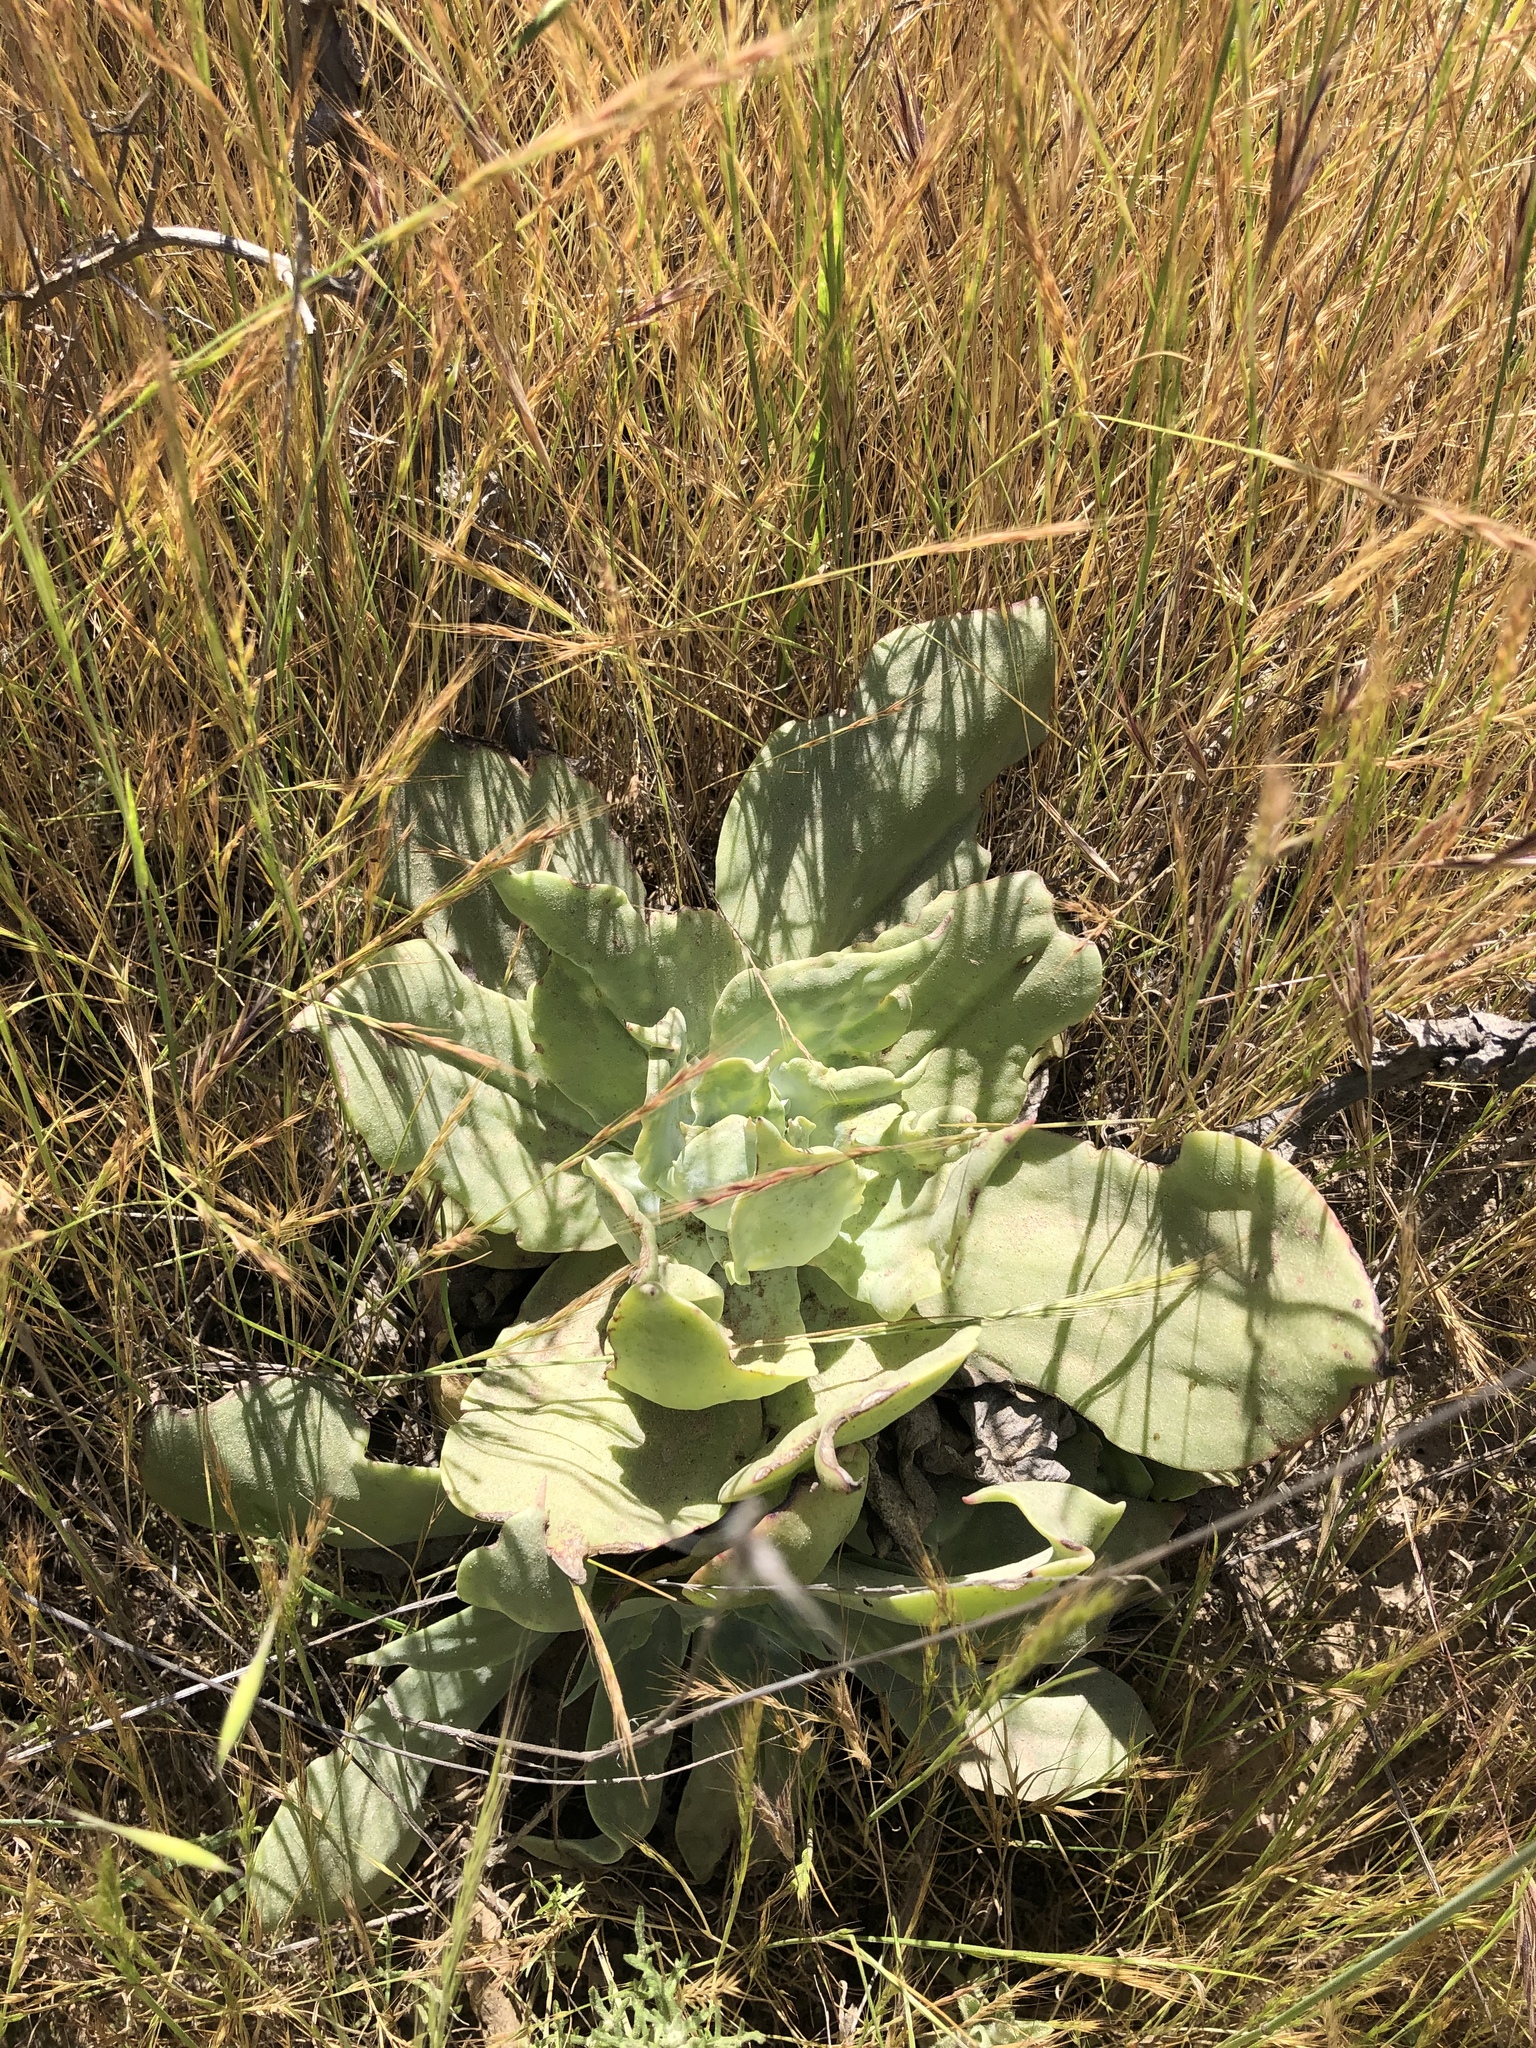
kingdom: Plantae
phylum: Tracheophyta
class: Magnoliopsida
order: Saxifragales
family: Crassulaceae
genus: Dudleya
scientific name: Dudleya pulverulenta
